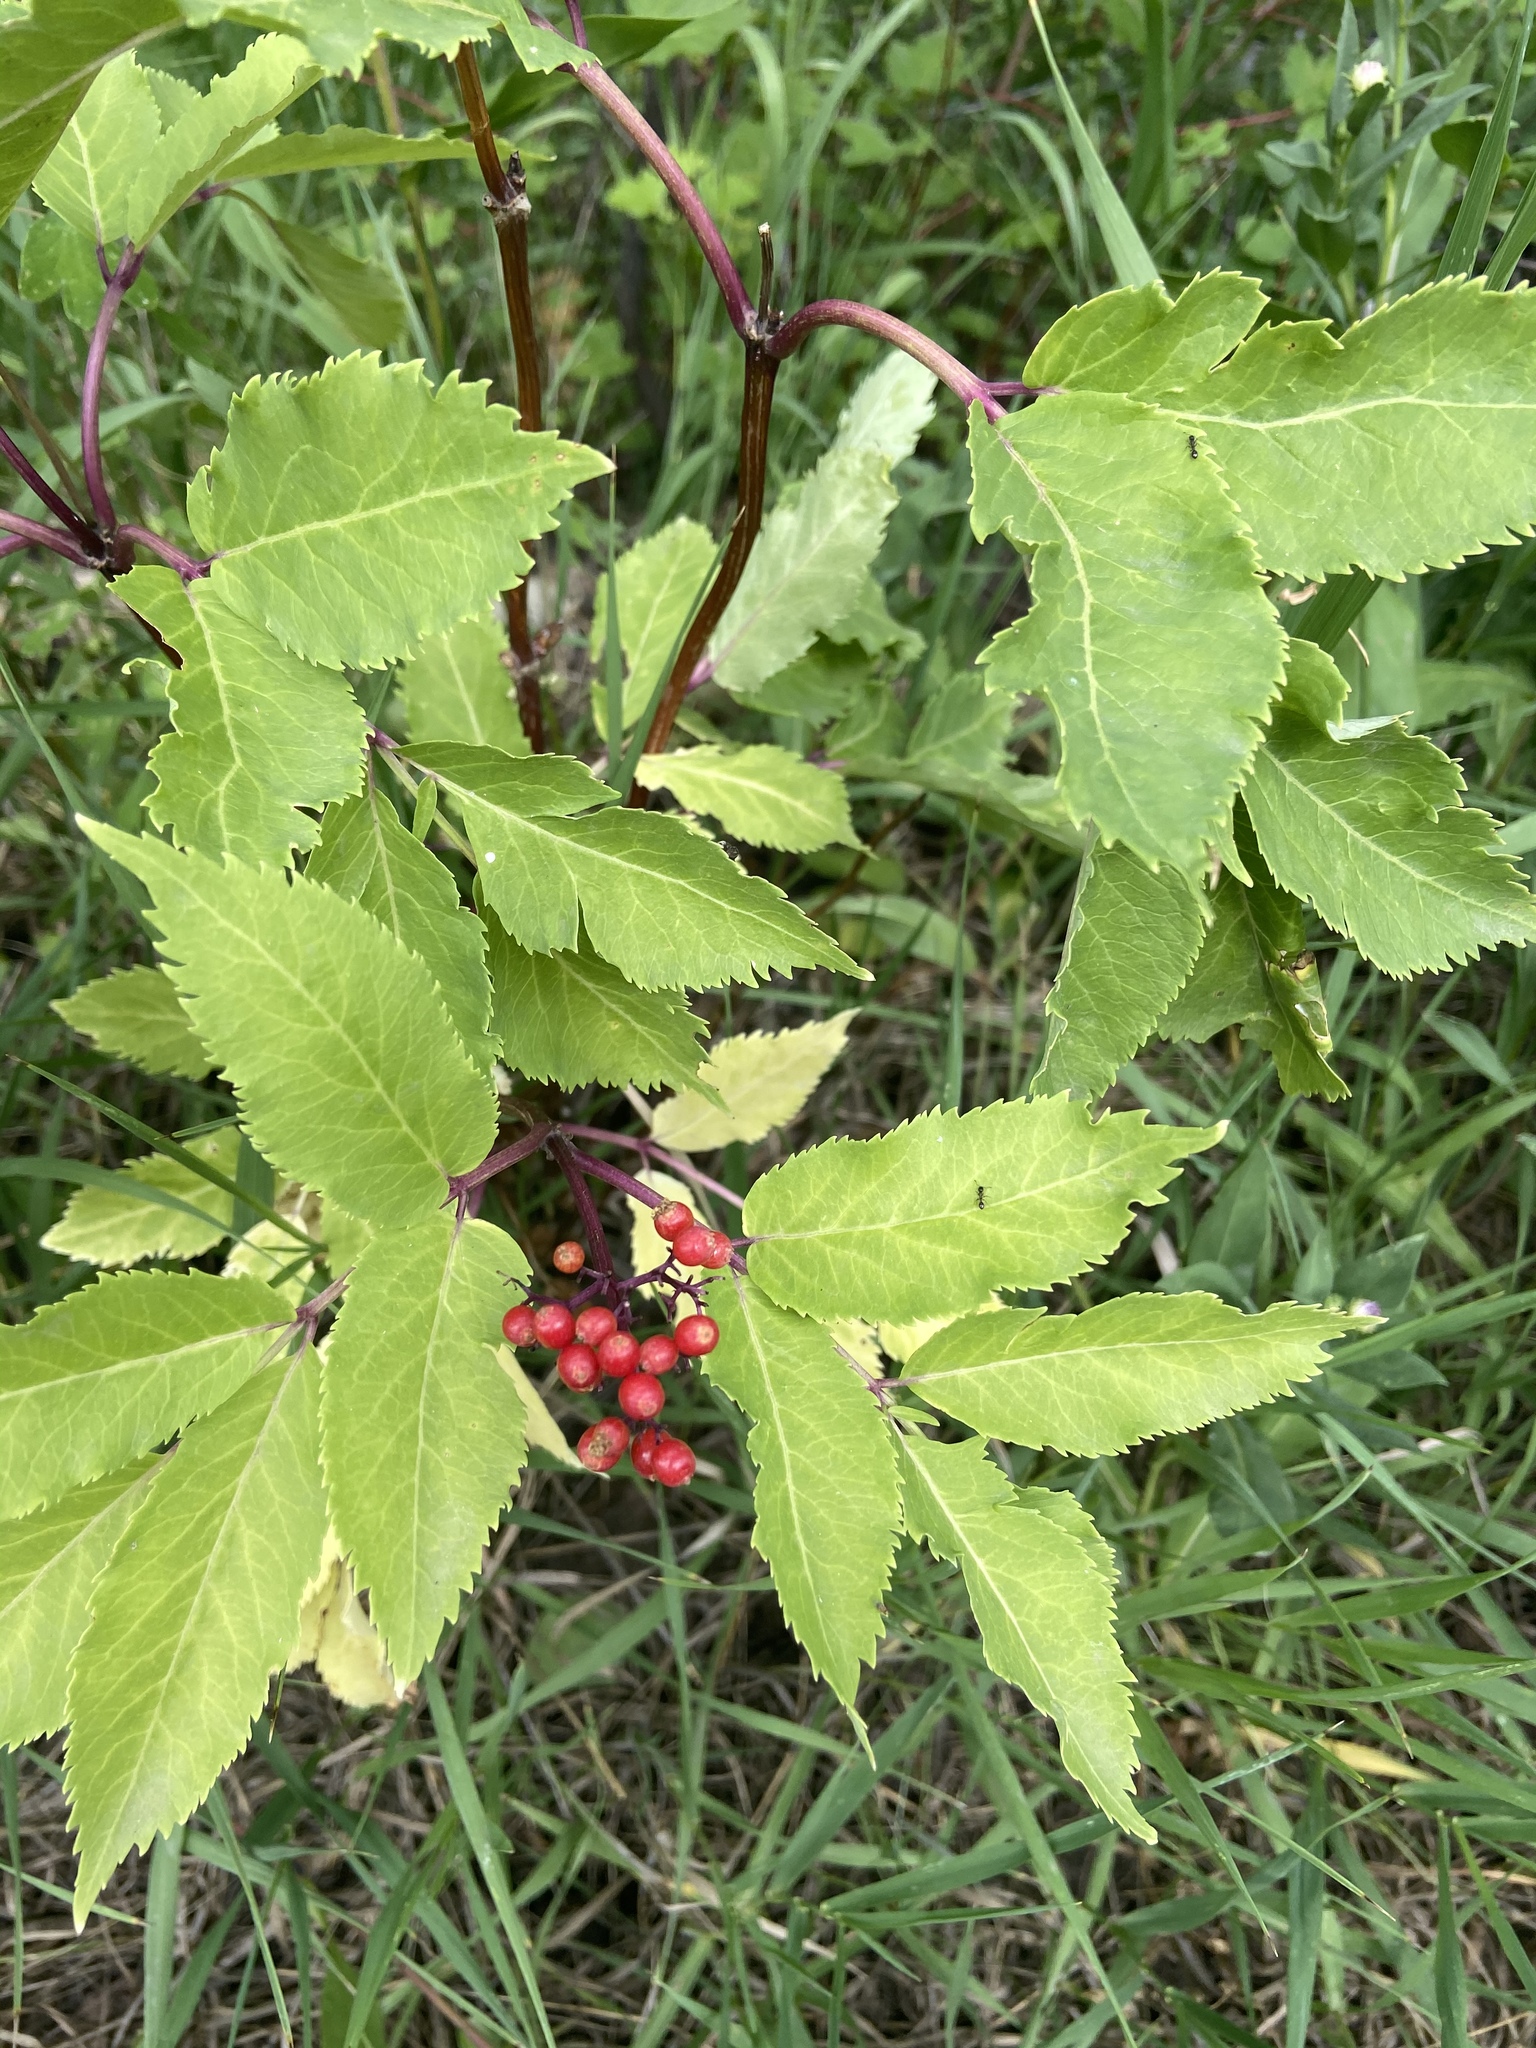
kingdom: Plantae
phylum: Tracheophyta
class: Magnoliopsida
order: Dipsacales
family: Viburnaceae
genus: Sambucus
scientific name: Sambucus racemosa
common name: Red-berried elder
